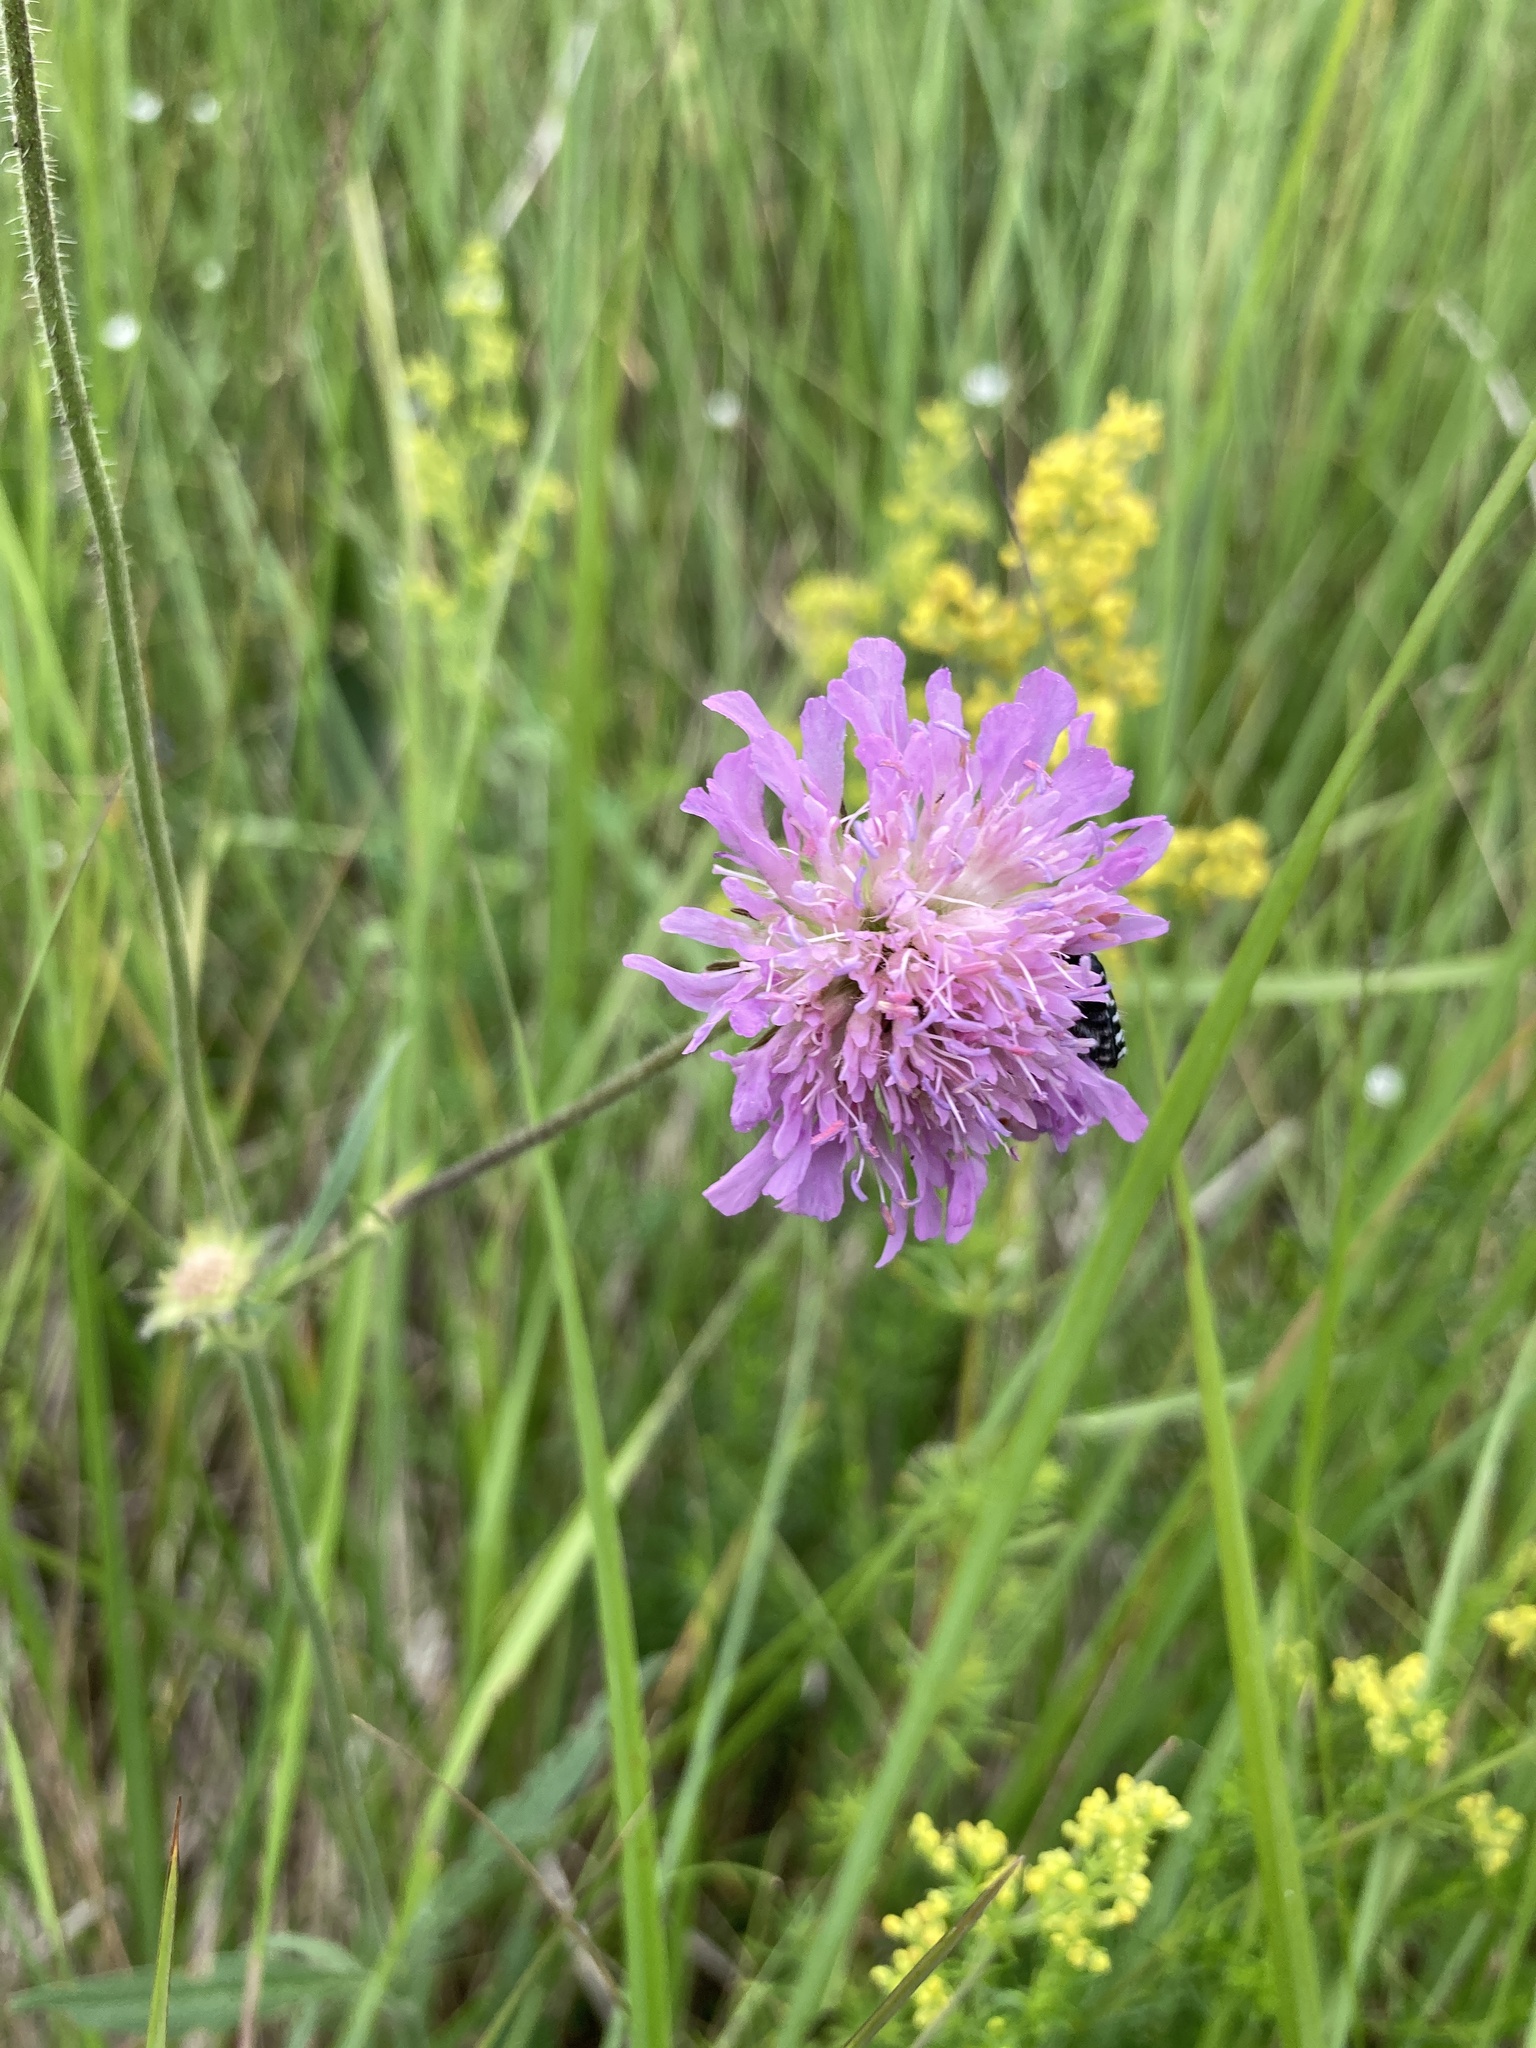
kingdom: Plantae
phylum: Tracheophyta
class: Magnoliopsida
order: Dipsacales
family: Caprifoliaceae
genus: Knautia
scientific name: Knautia arvensis
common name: Field scabiosa
